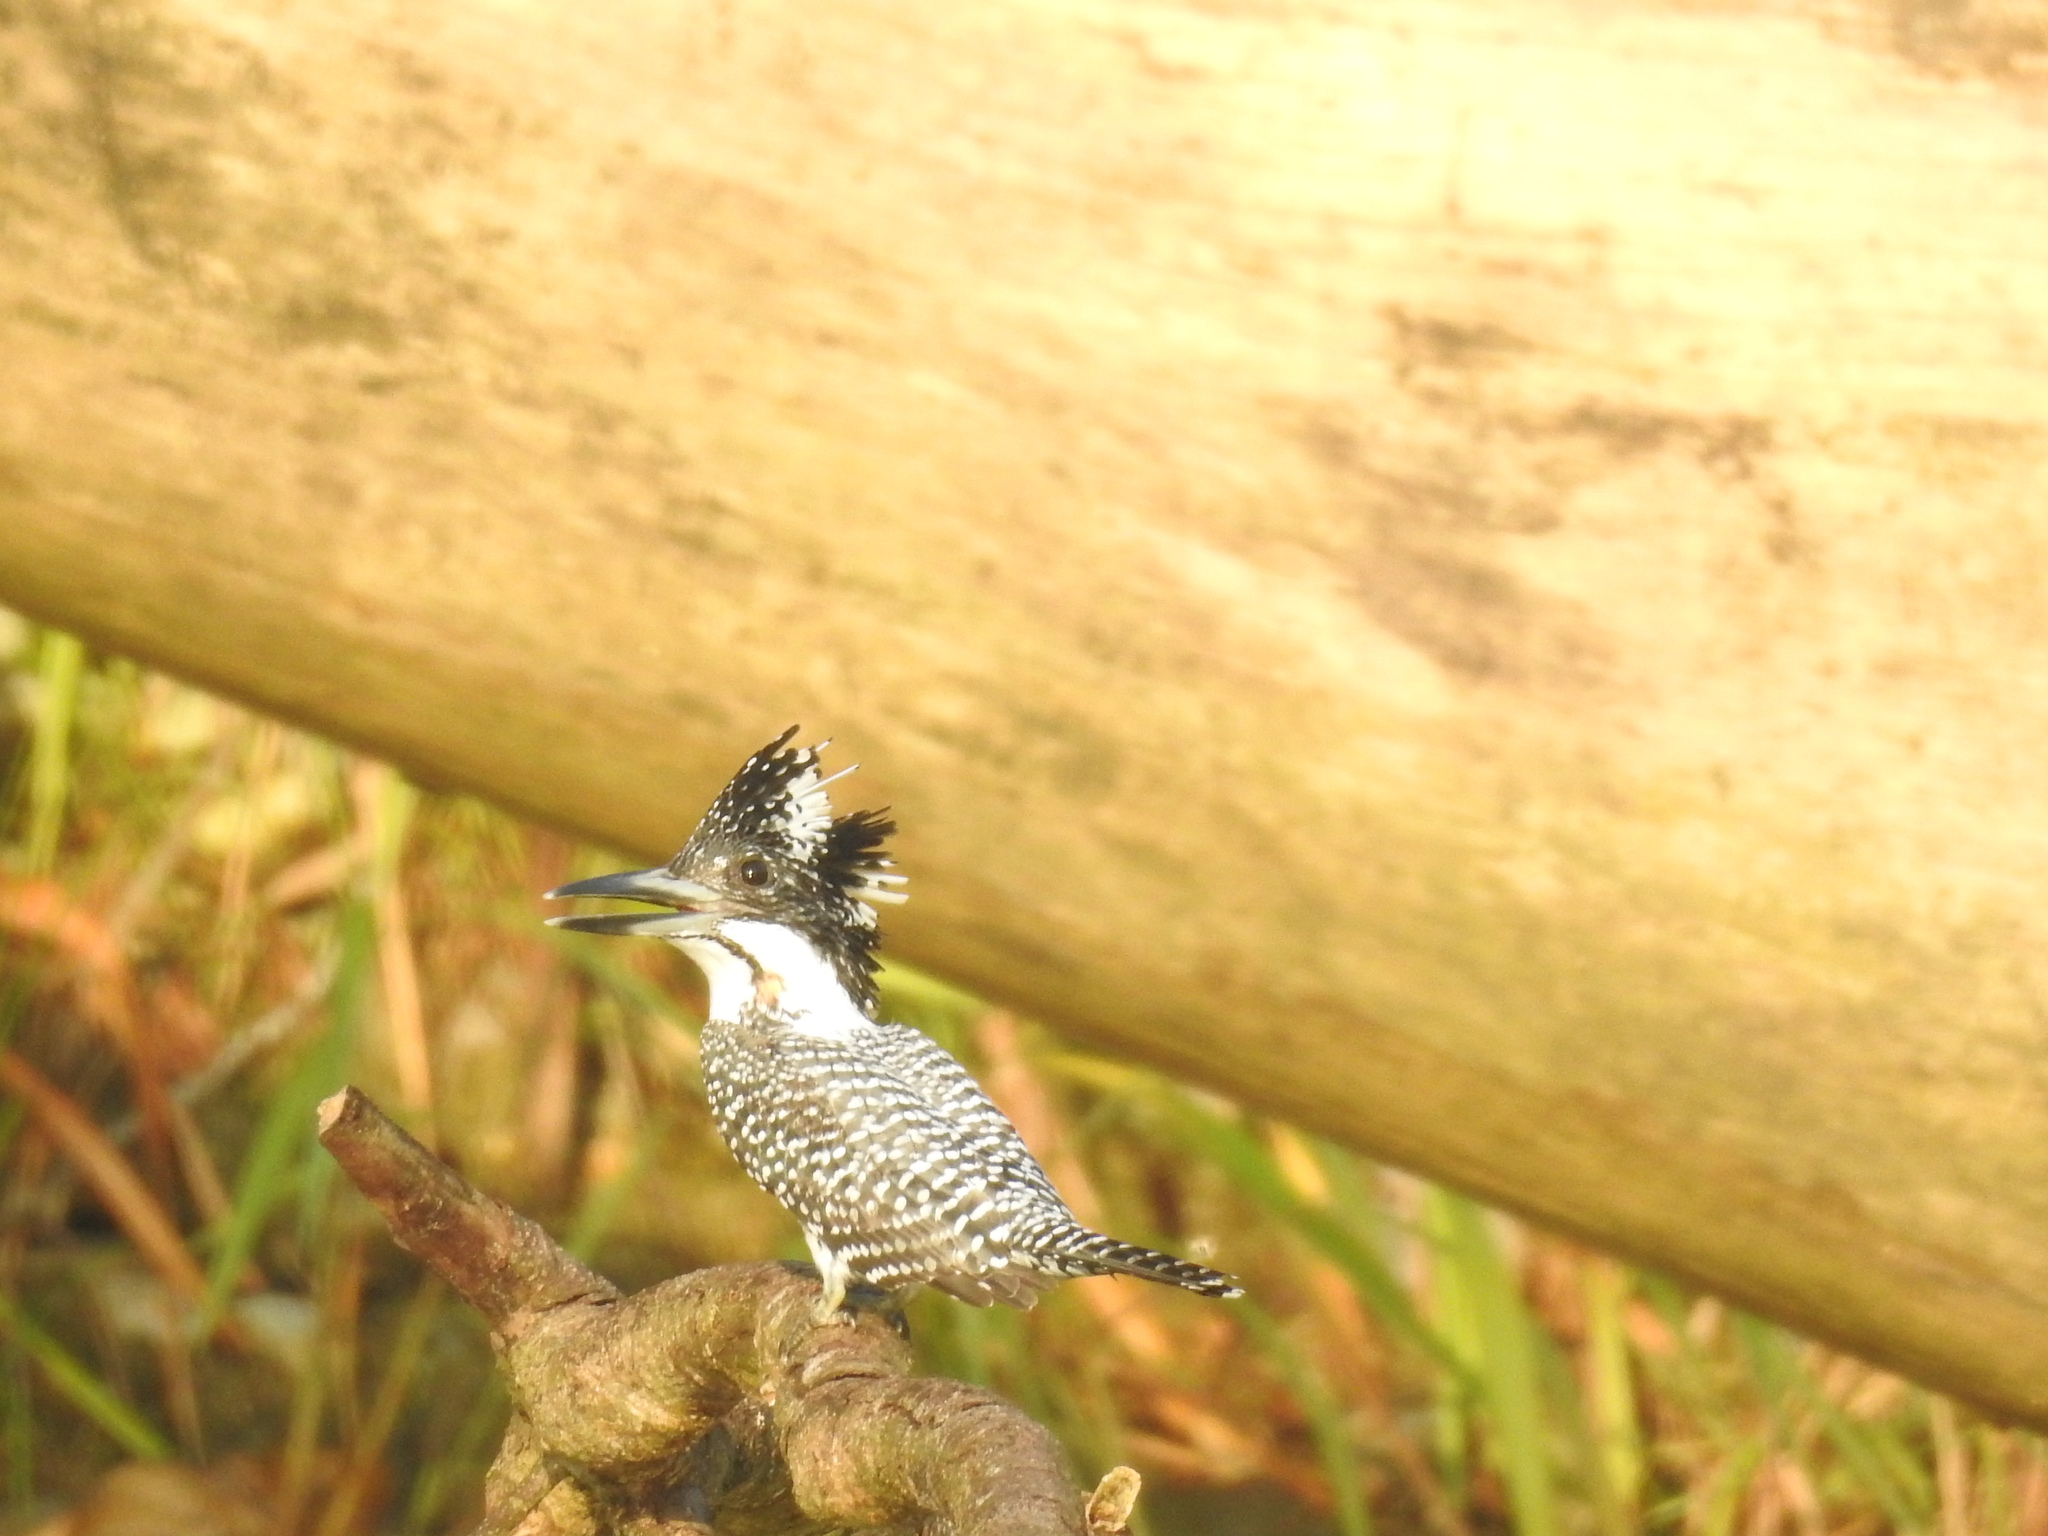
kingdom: Animalia
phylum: Chordata
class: Aves
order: Coraciiformes
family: Alcedinidae
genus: Megaceryle
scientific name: Megaceryle lugubris
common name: Crested kingfisher
